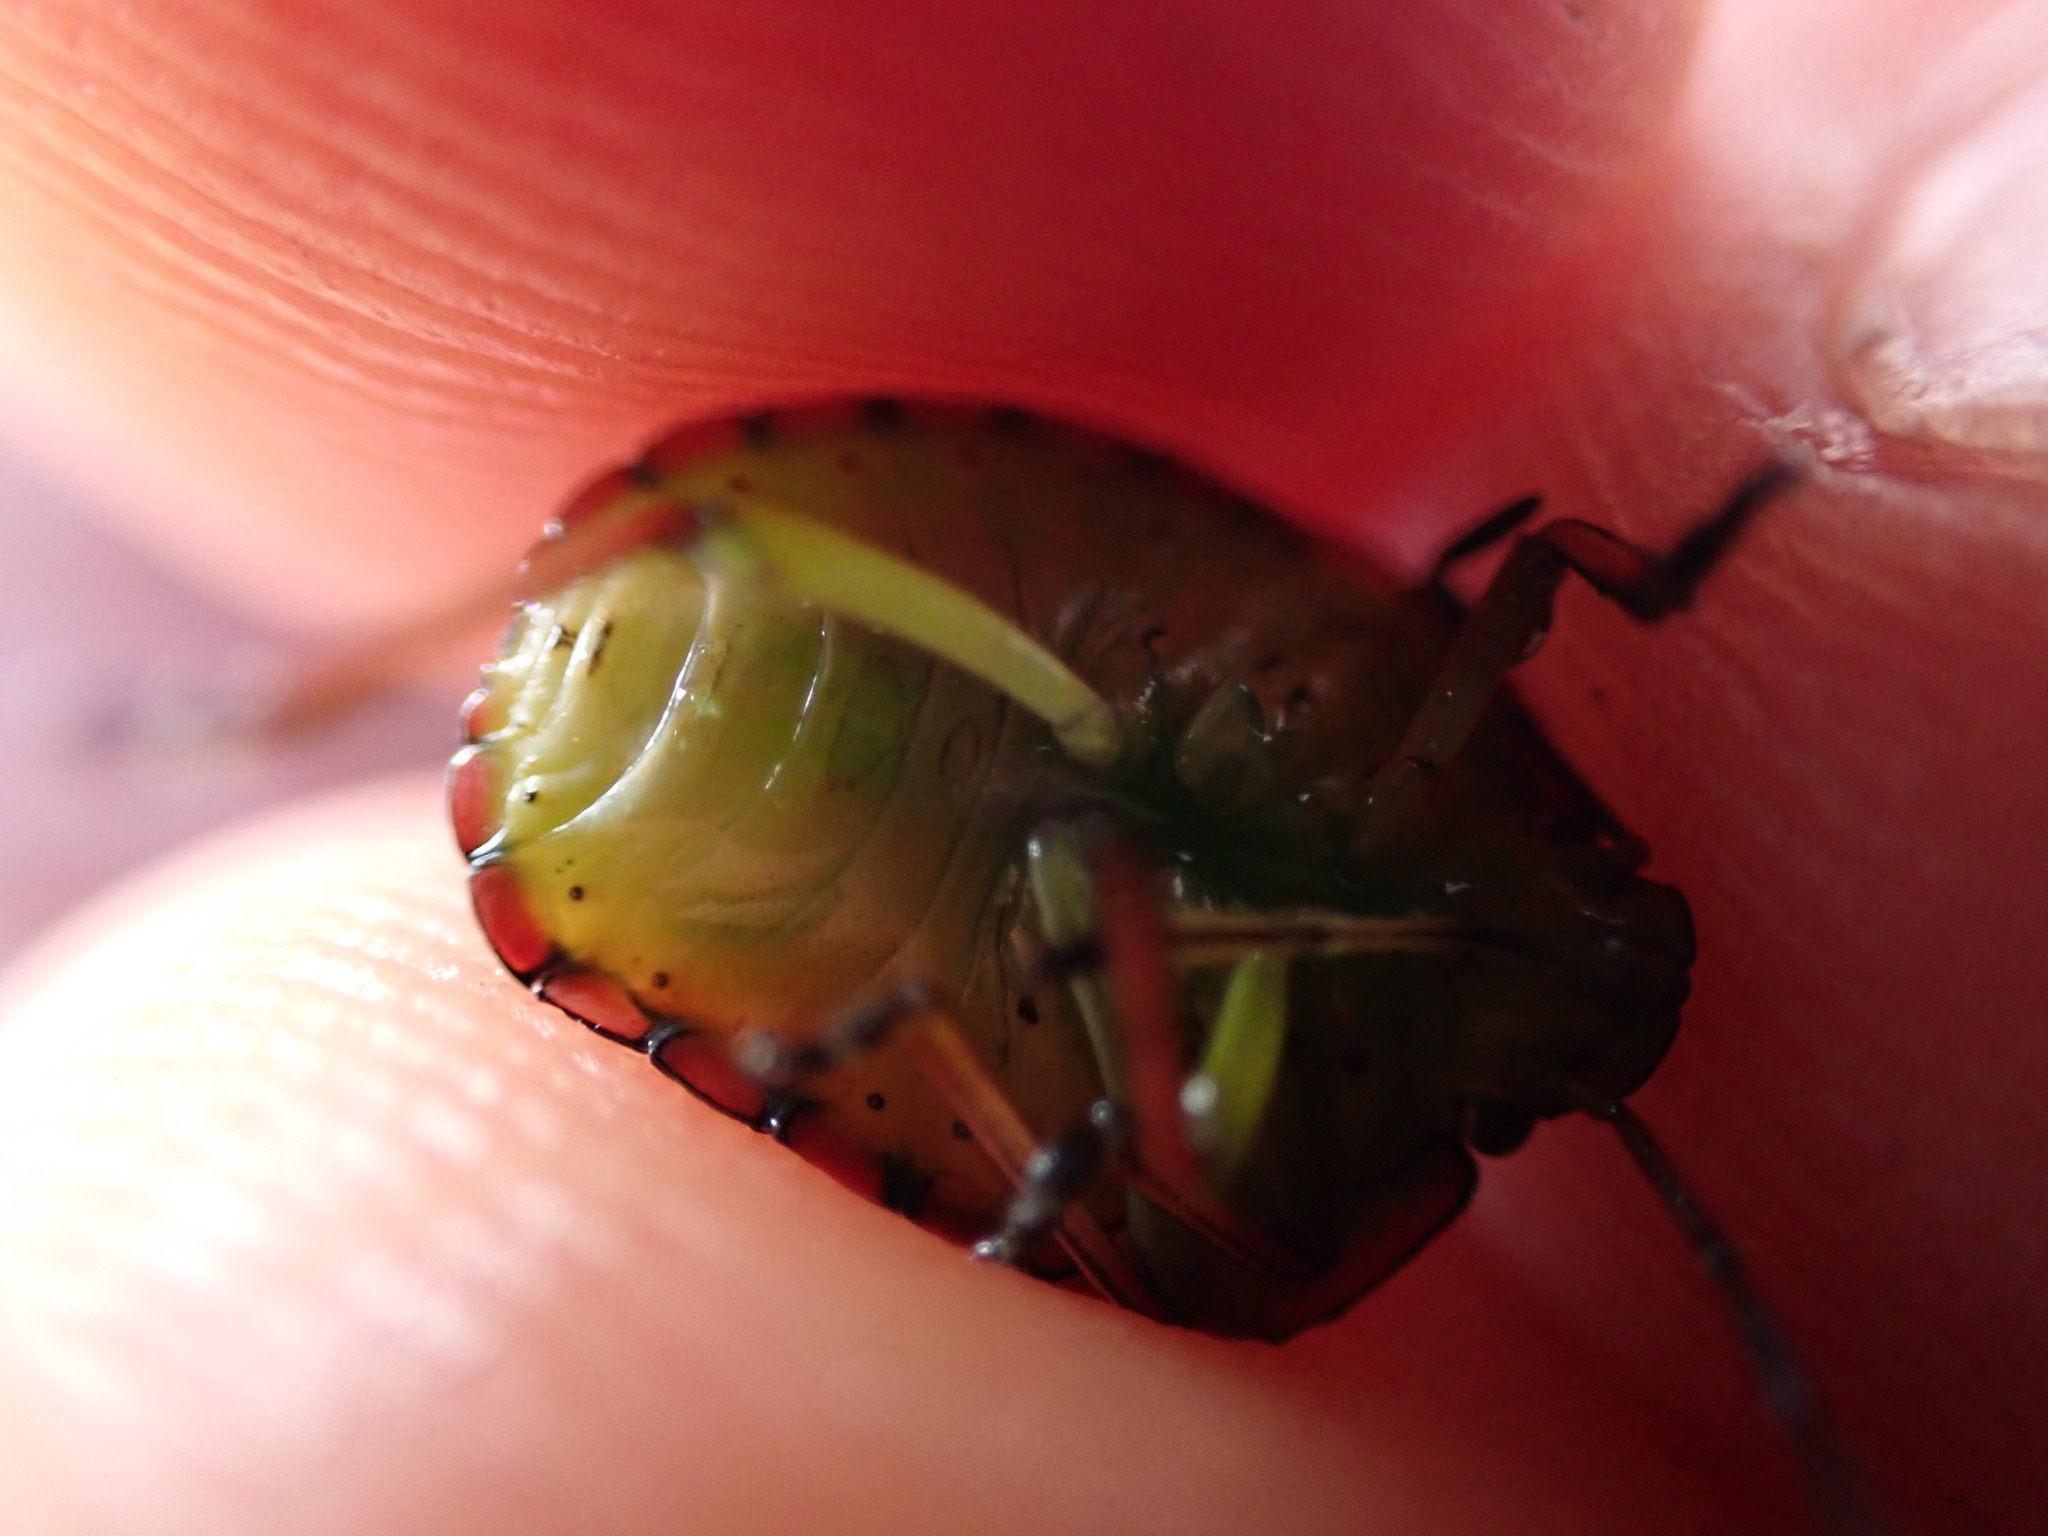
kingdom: Animalia
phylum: Arthropoda
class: Insecta
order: Hemiptera
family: Pentatomidae
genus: Nezara
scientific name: Nezara viridula
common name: Southern green stink bug
